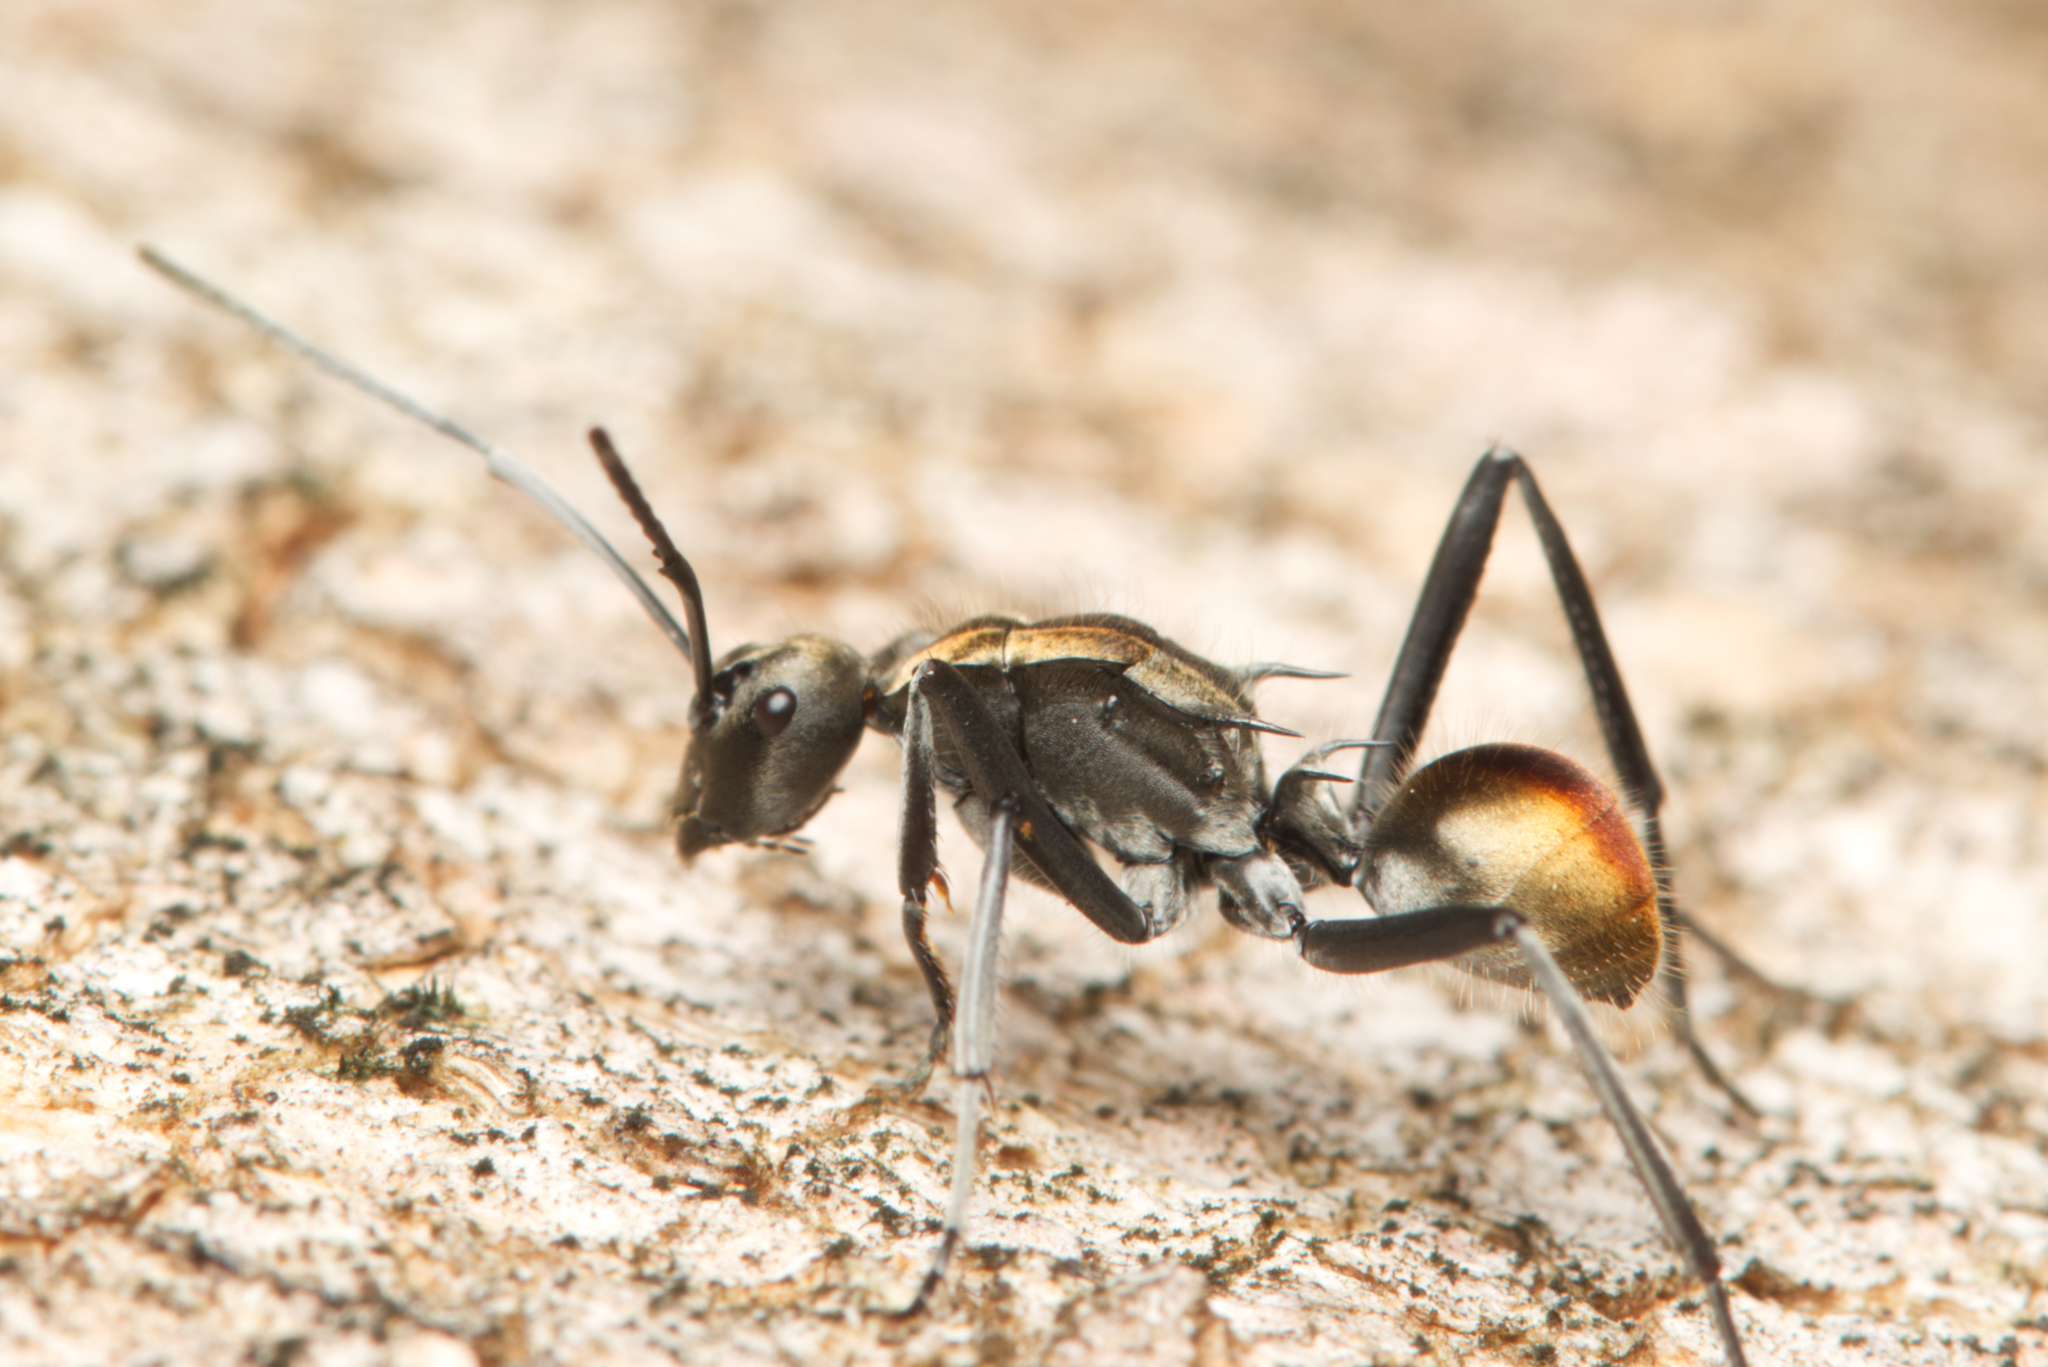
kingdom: Animalia
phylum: Arthropoda
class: Insecta
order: Hymenoptera
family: Formicidae
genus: Polyrhachis
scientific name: Polyrhachis
